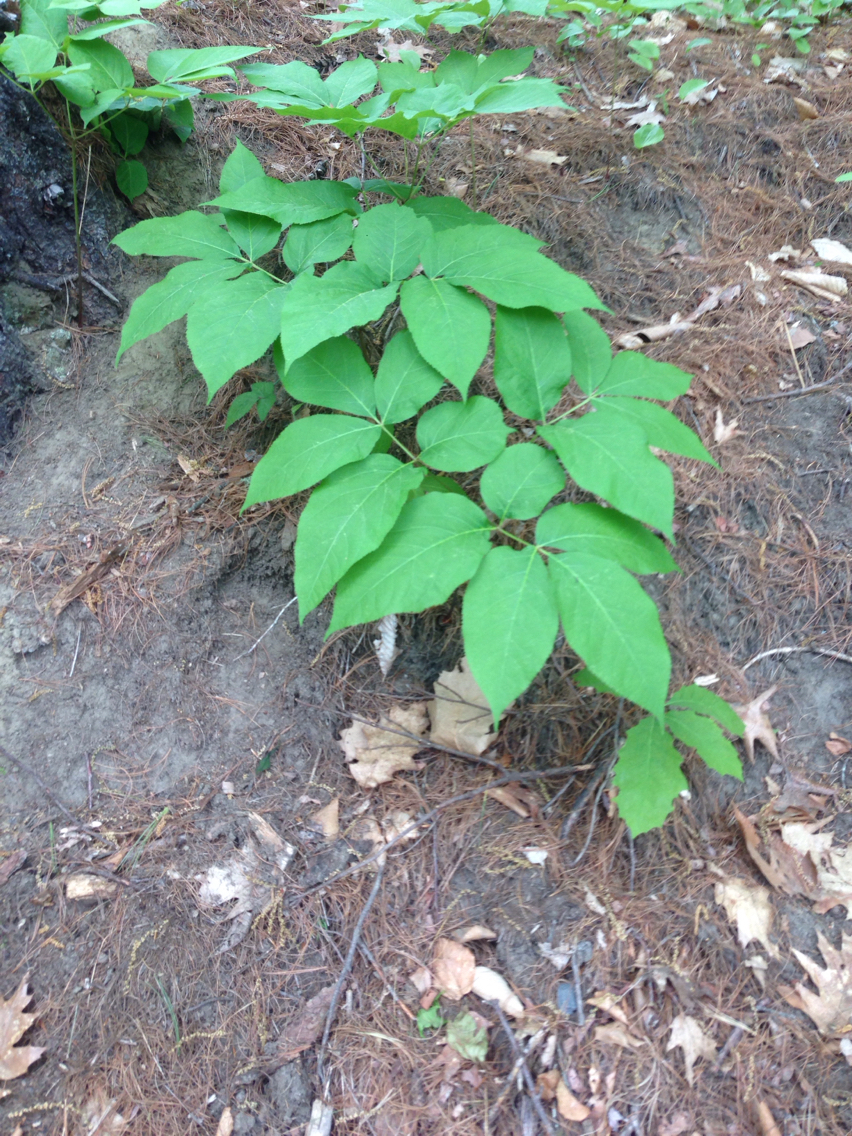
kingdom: Plantae
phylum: Tracheophyta
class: Magnoliopsida
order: Apiales
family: Araliaceae
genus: Aralia
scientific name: Aralia nudicaulis
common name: Wild sarsaparilla
